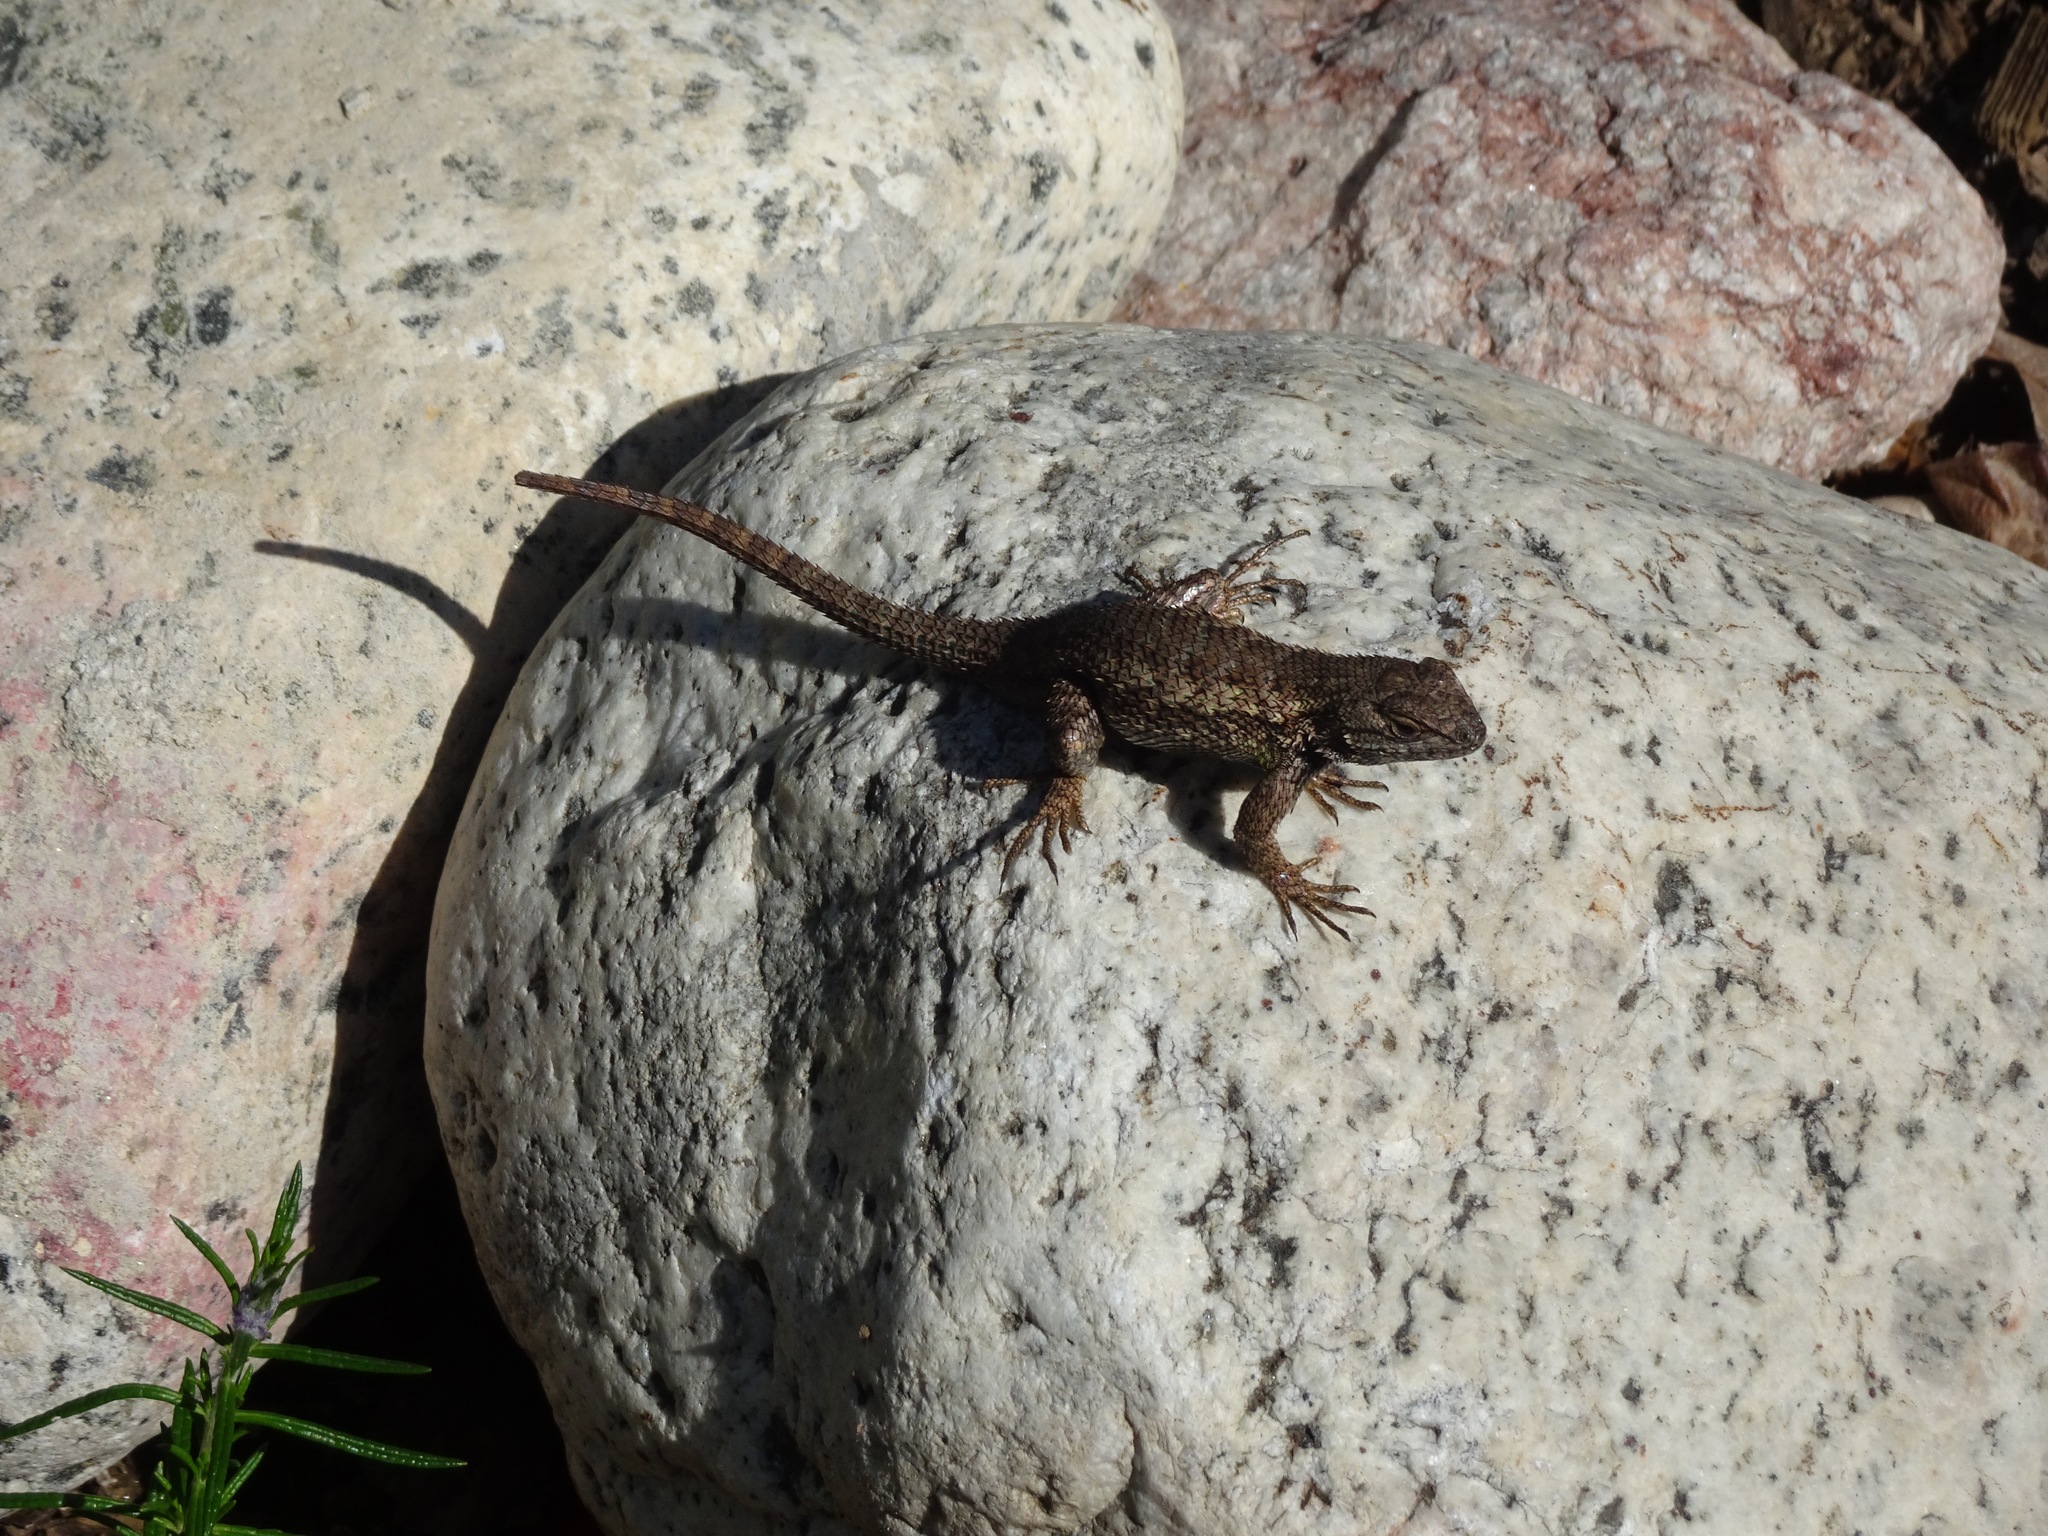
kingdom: Animalia
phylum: Chordata
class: Squamata
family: Phrynosomatidae
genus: Sceloporus
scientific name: Sceloporus occidentalis
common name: Western fence lizard
